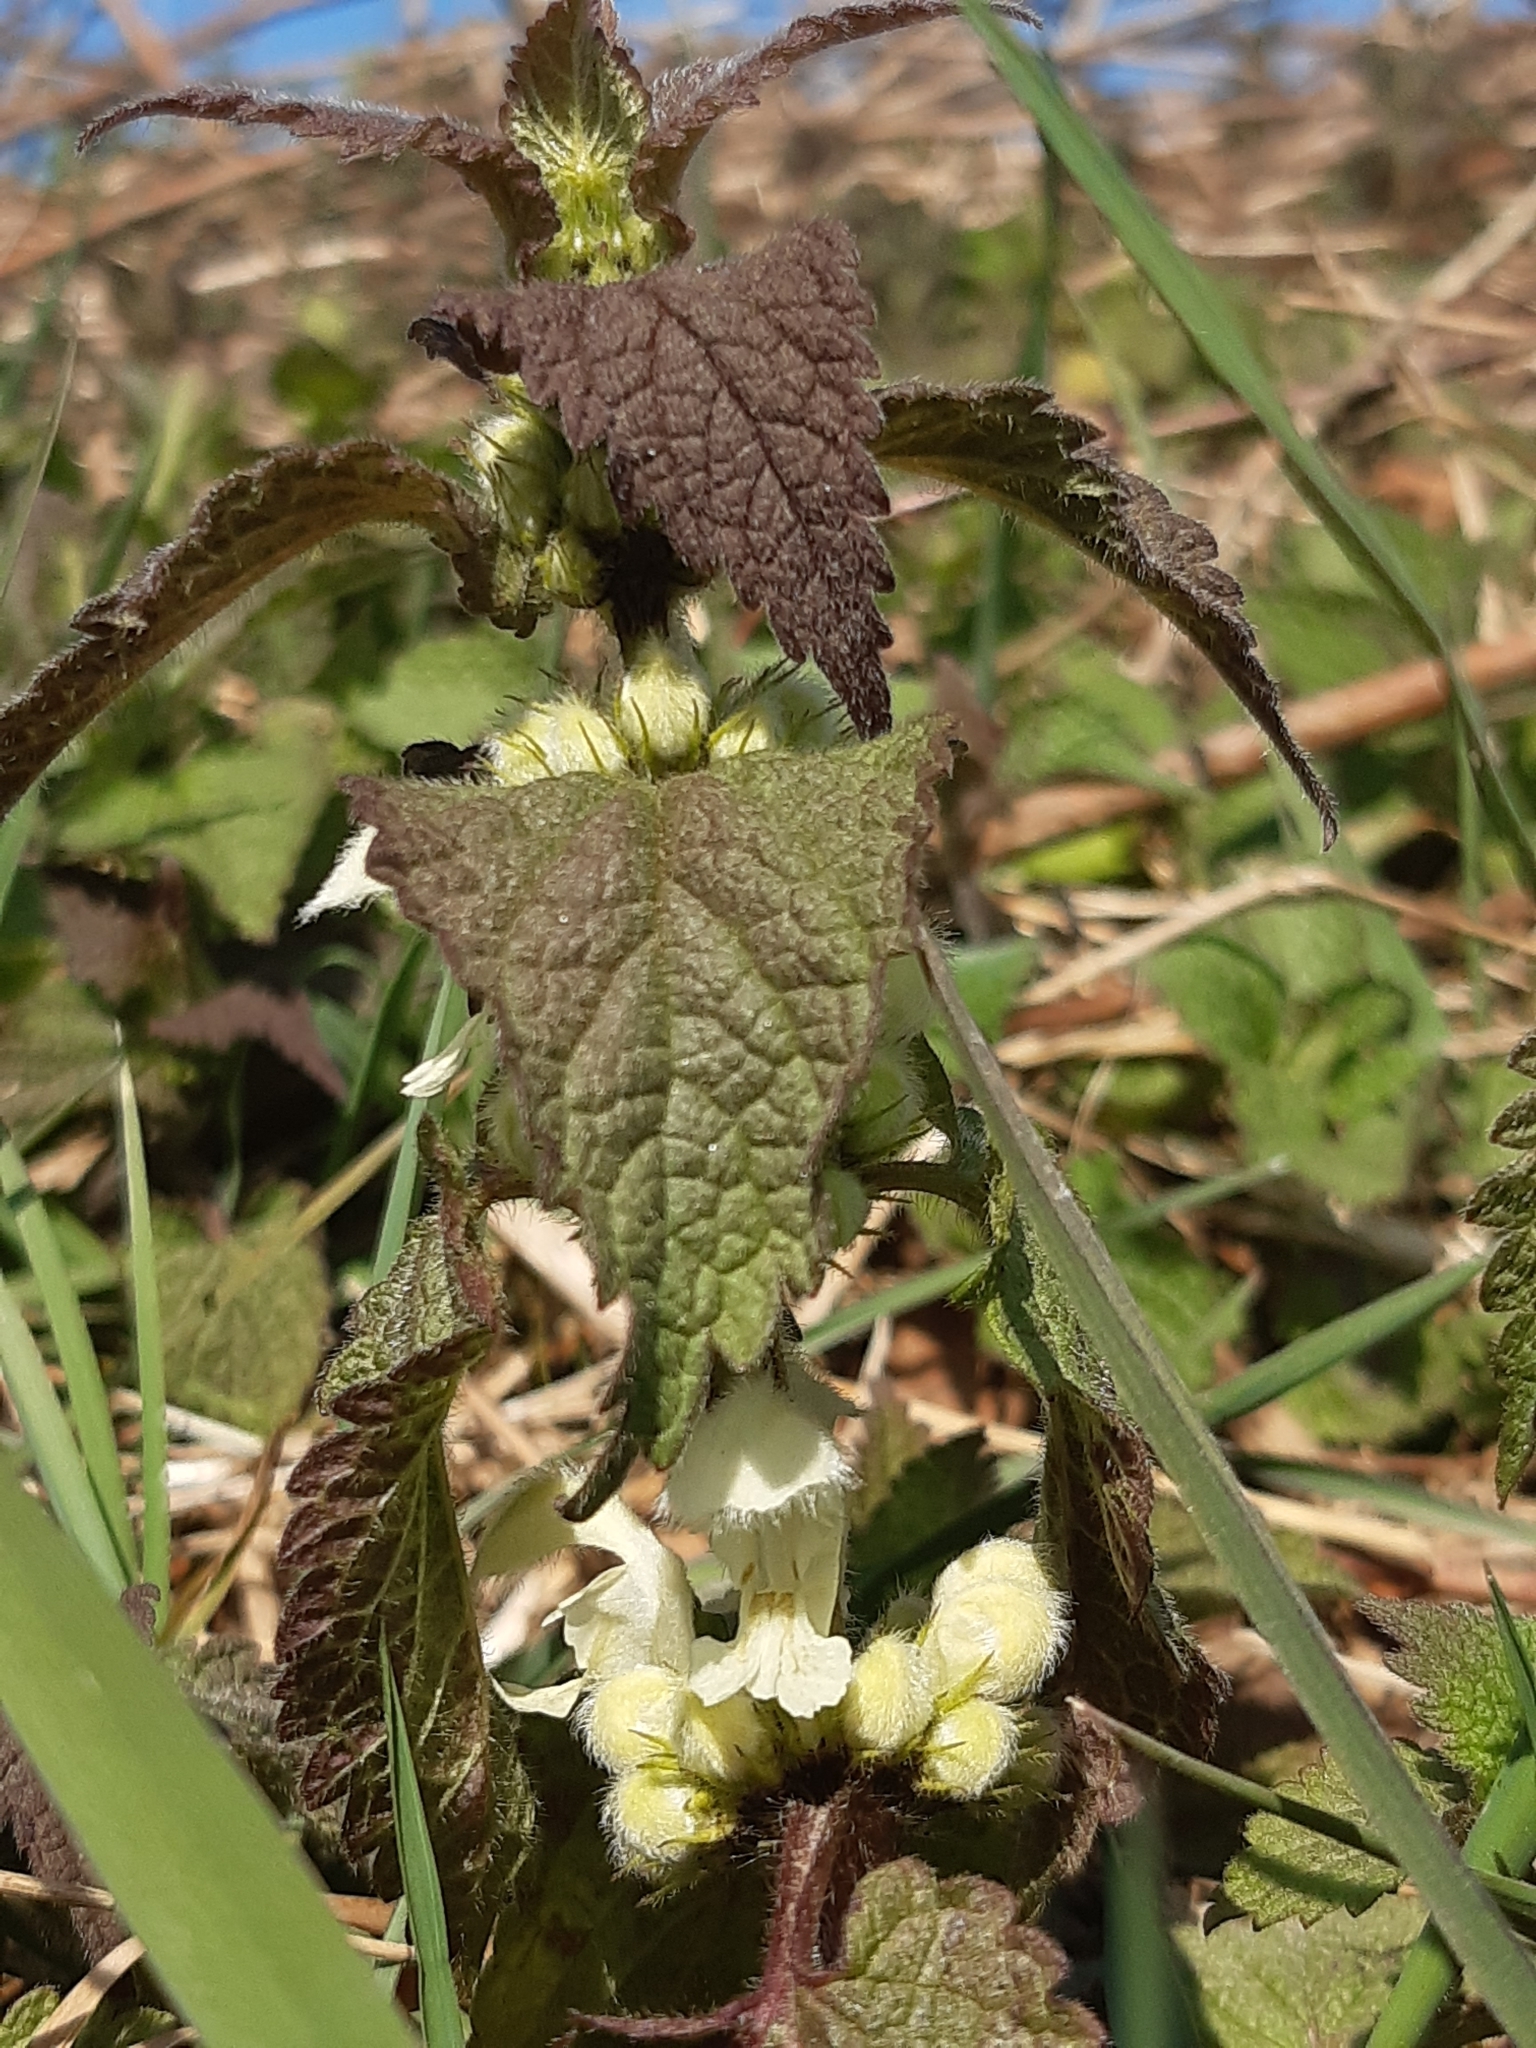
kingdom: Plantae
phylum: Tracheophyta
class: Magnoliopsida
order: Lamiales
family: Lamiaceae
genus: Lamium
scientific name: Lamium album
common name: White dead-nettle
